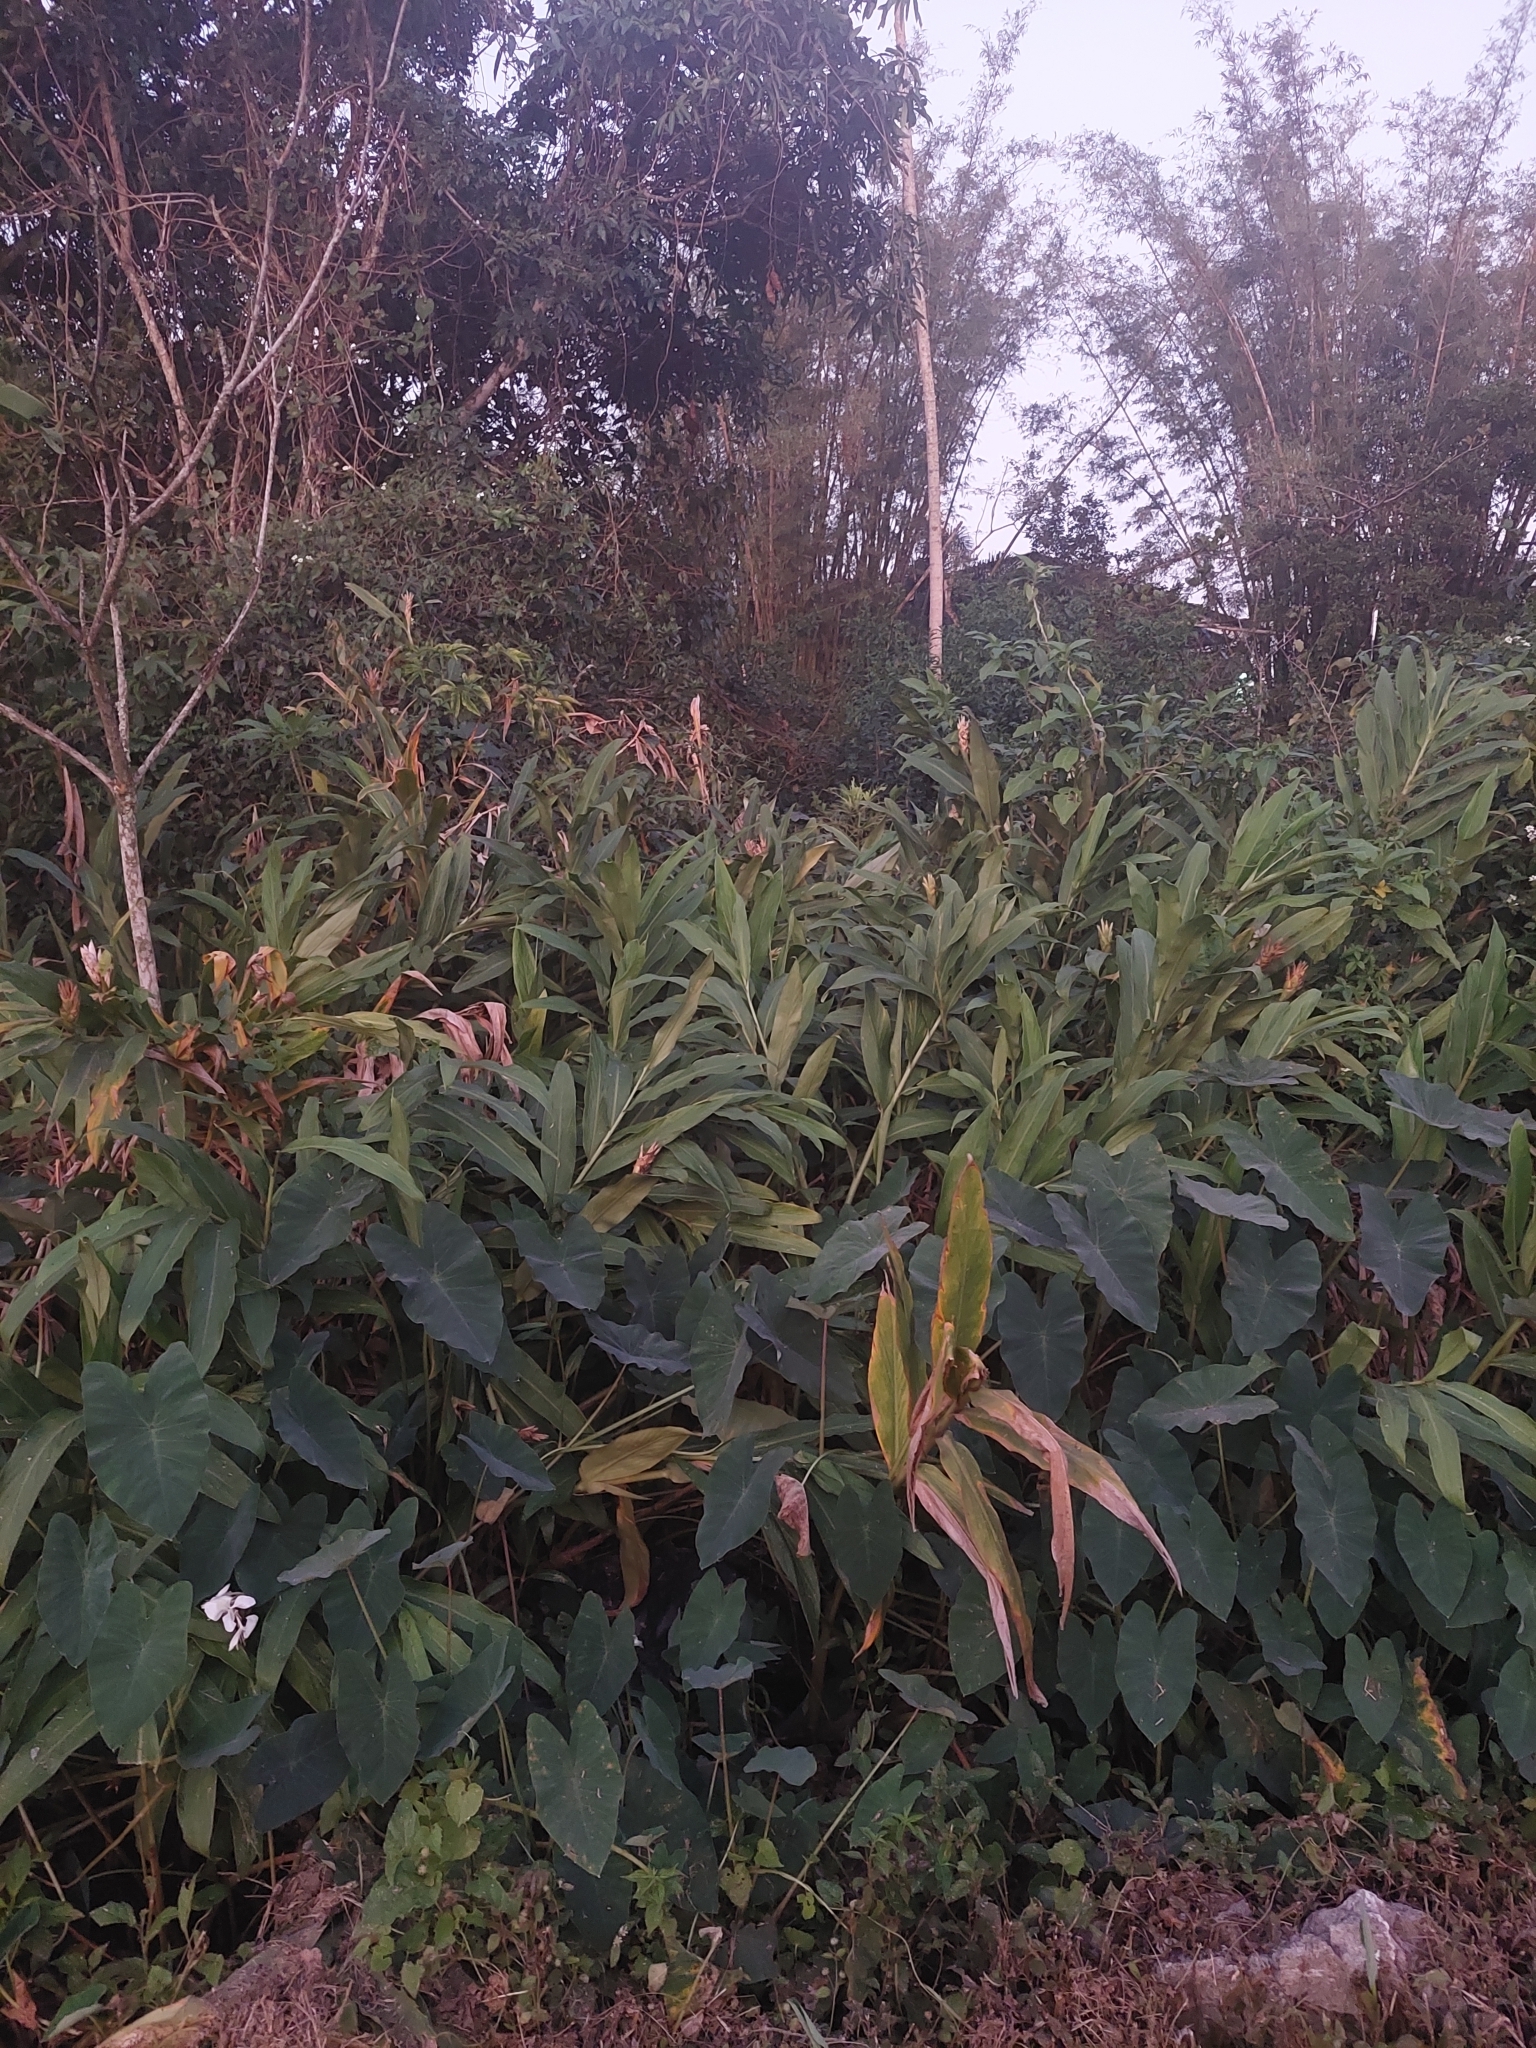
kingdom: Plantae
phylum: Tracheophyta
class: Liliopsida
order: Zingiberales
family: Zingiberaceae
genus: Hedychium
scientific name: Hedychium coronarium
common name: White garland-lily
